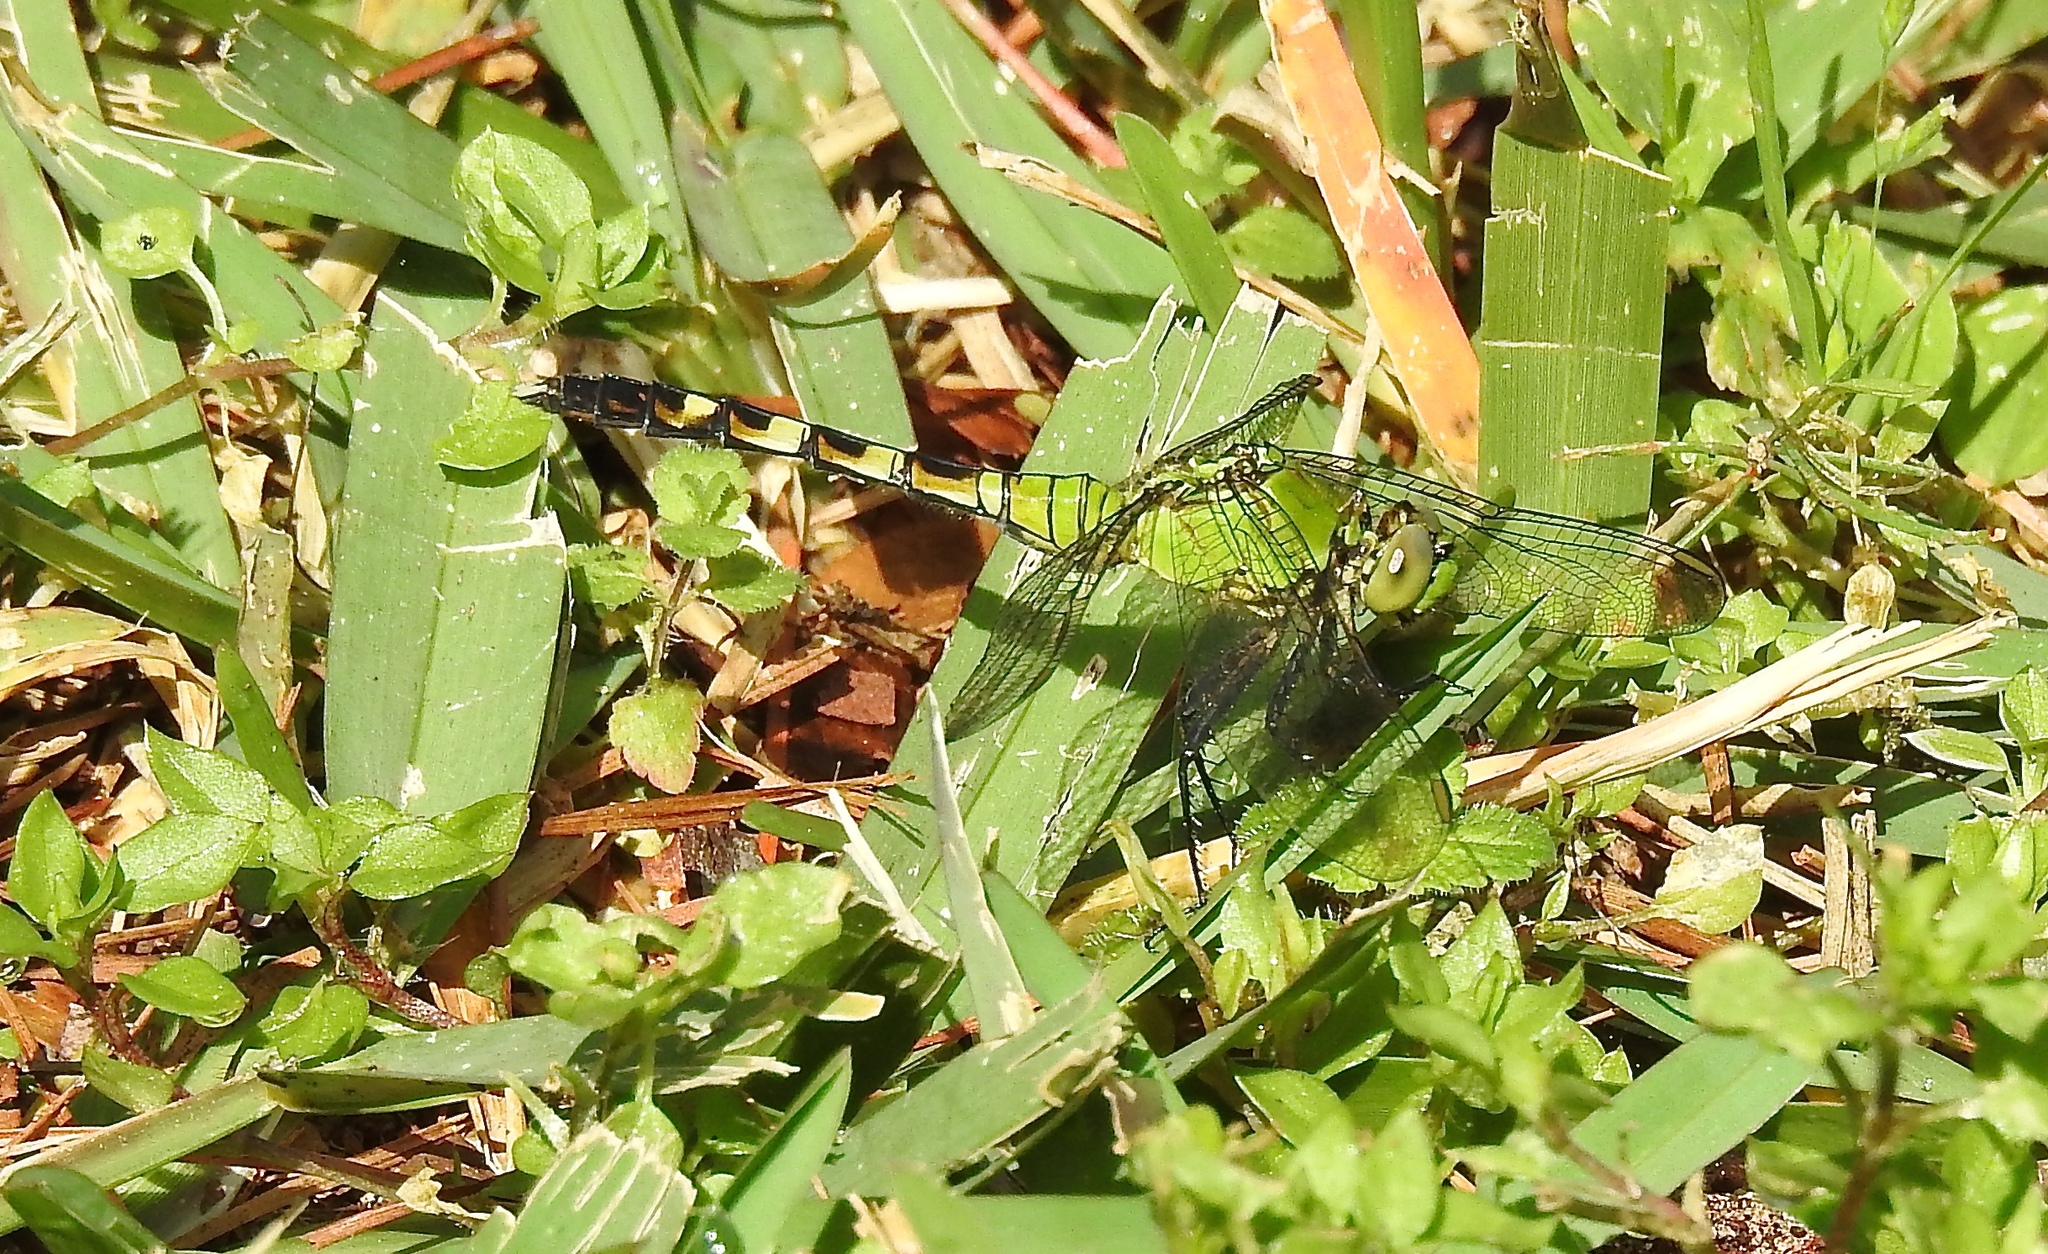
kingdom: Animalia
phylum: Arthropoda
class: Insecta
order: Odonata
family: Libellulidae
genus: Erythemis
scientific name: Erythemis simplicicollis
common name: Eastern pondhawk
